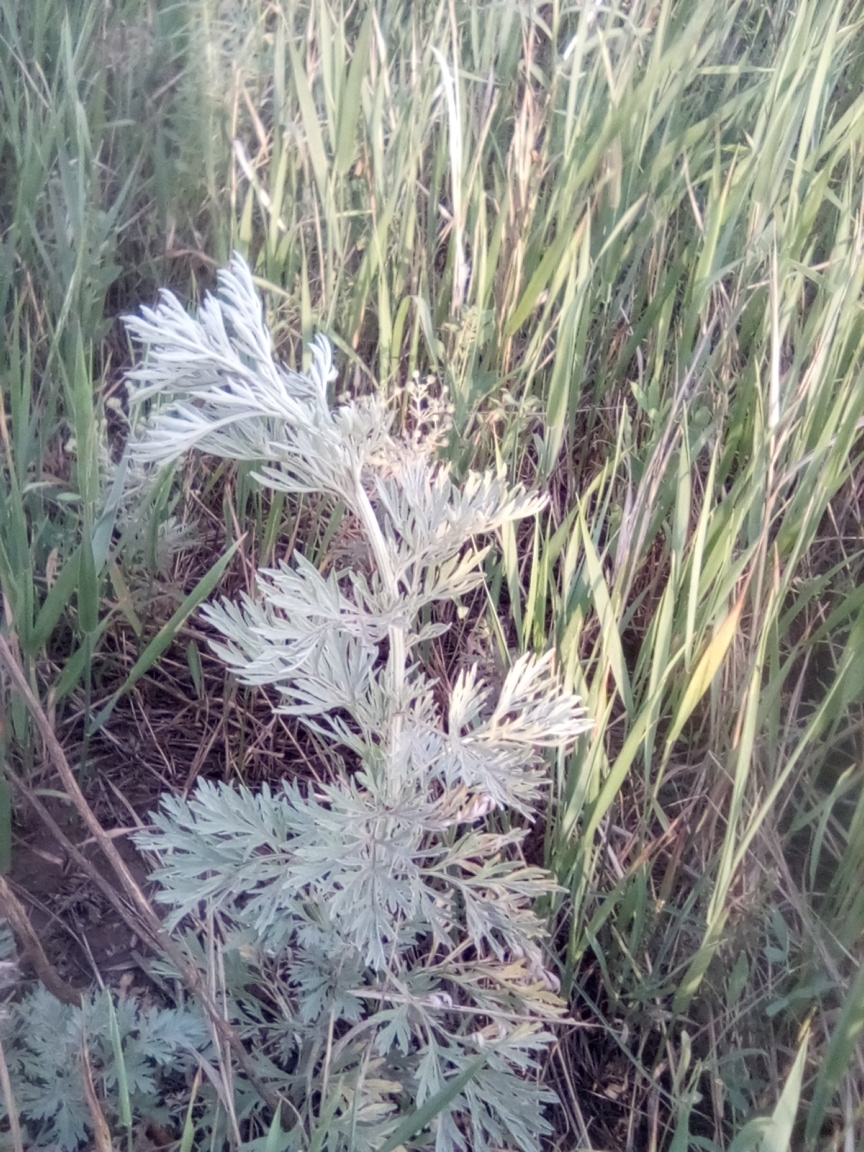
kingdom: Plantae
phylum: Tracheophyta
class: Magnoliopsida
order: Asterales
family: Asteraceae
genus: Artemisia
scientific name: Artemisia absinthium
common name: Wormwood
